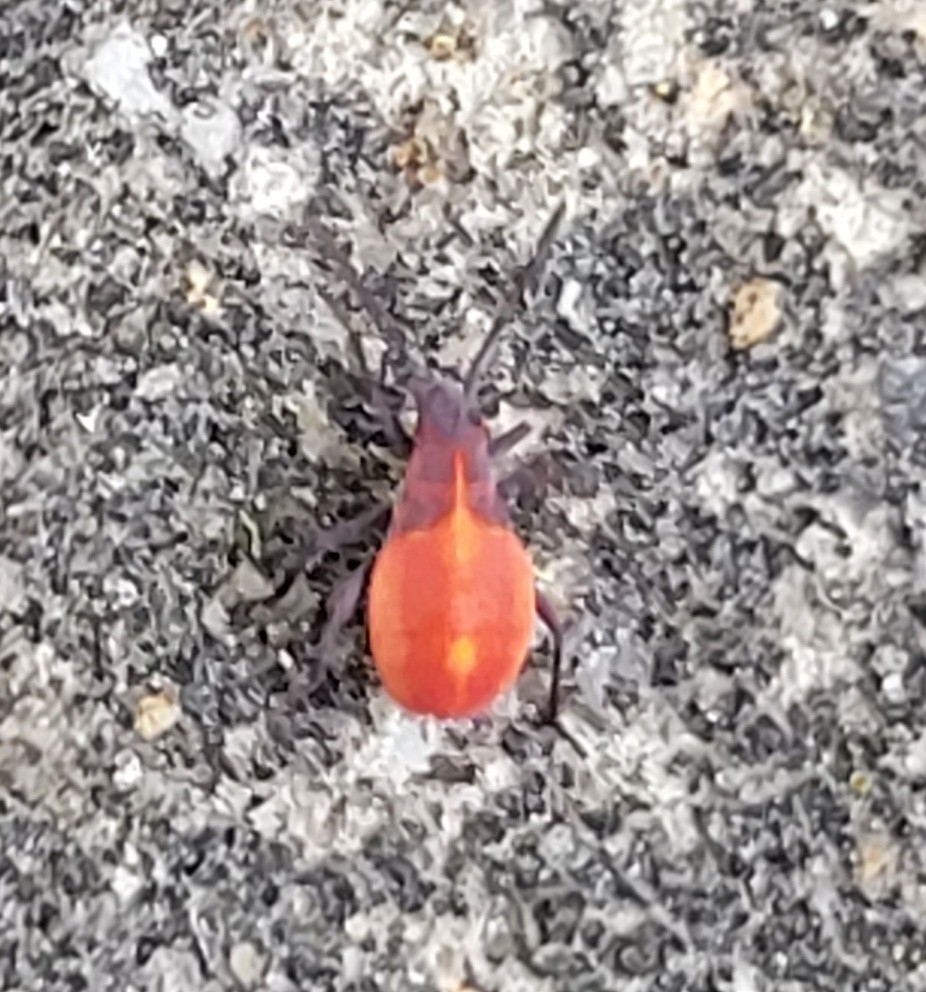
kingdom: Animalia
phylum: Arthropoda
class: Insecta
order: Hemiptera
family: Rhopalidae
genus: Boisea
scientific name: Boisea trivittata
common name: Boxelder bug
